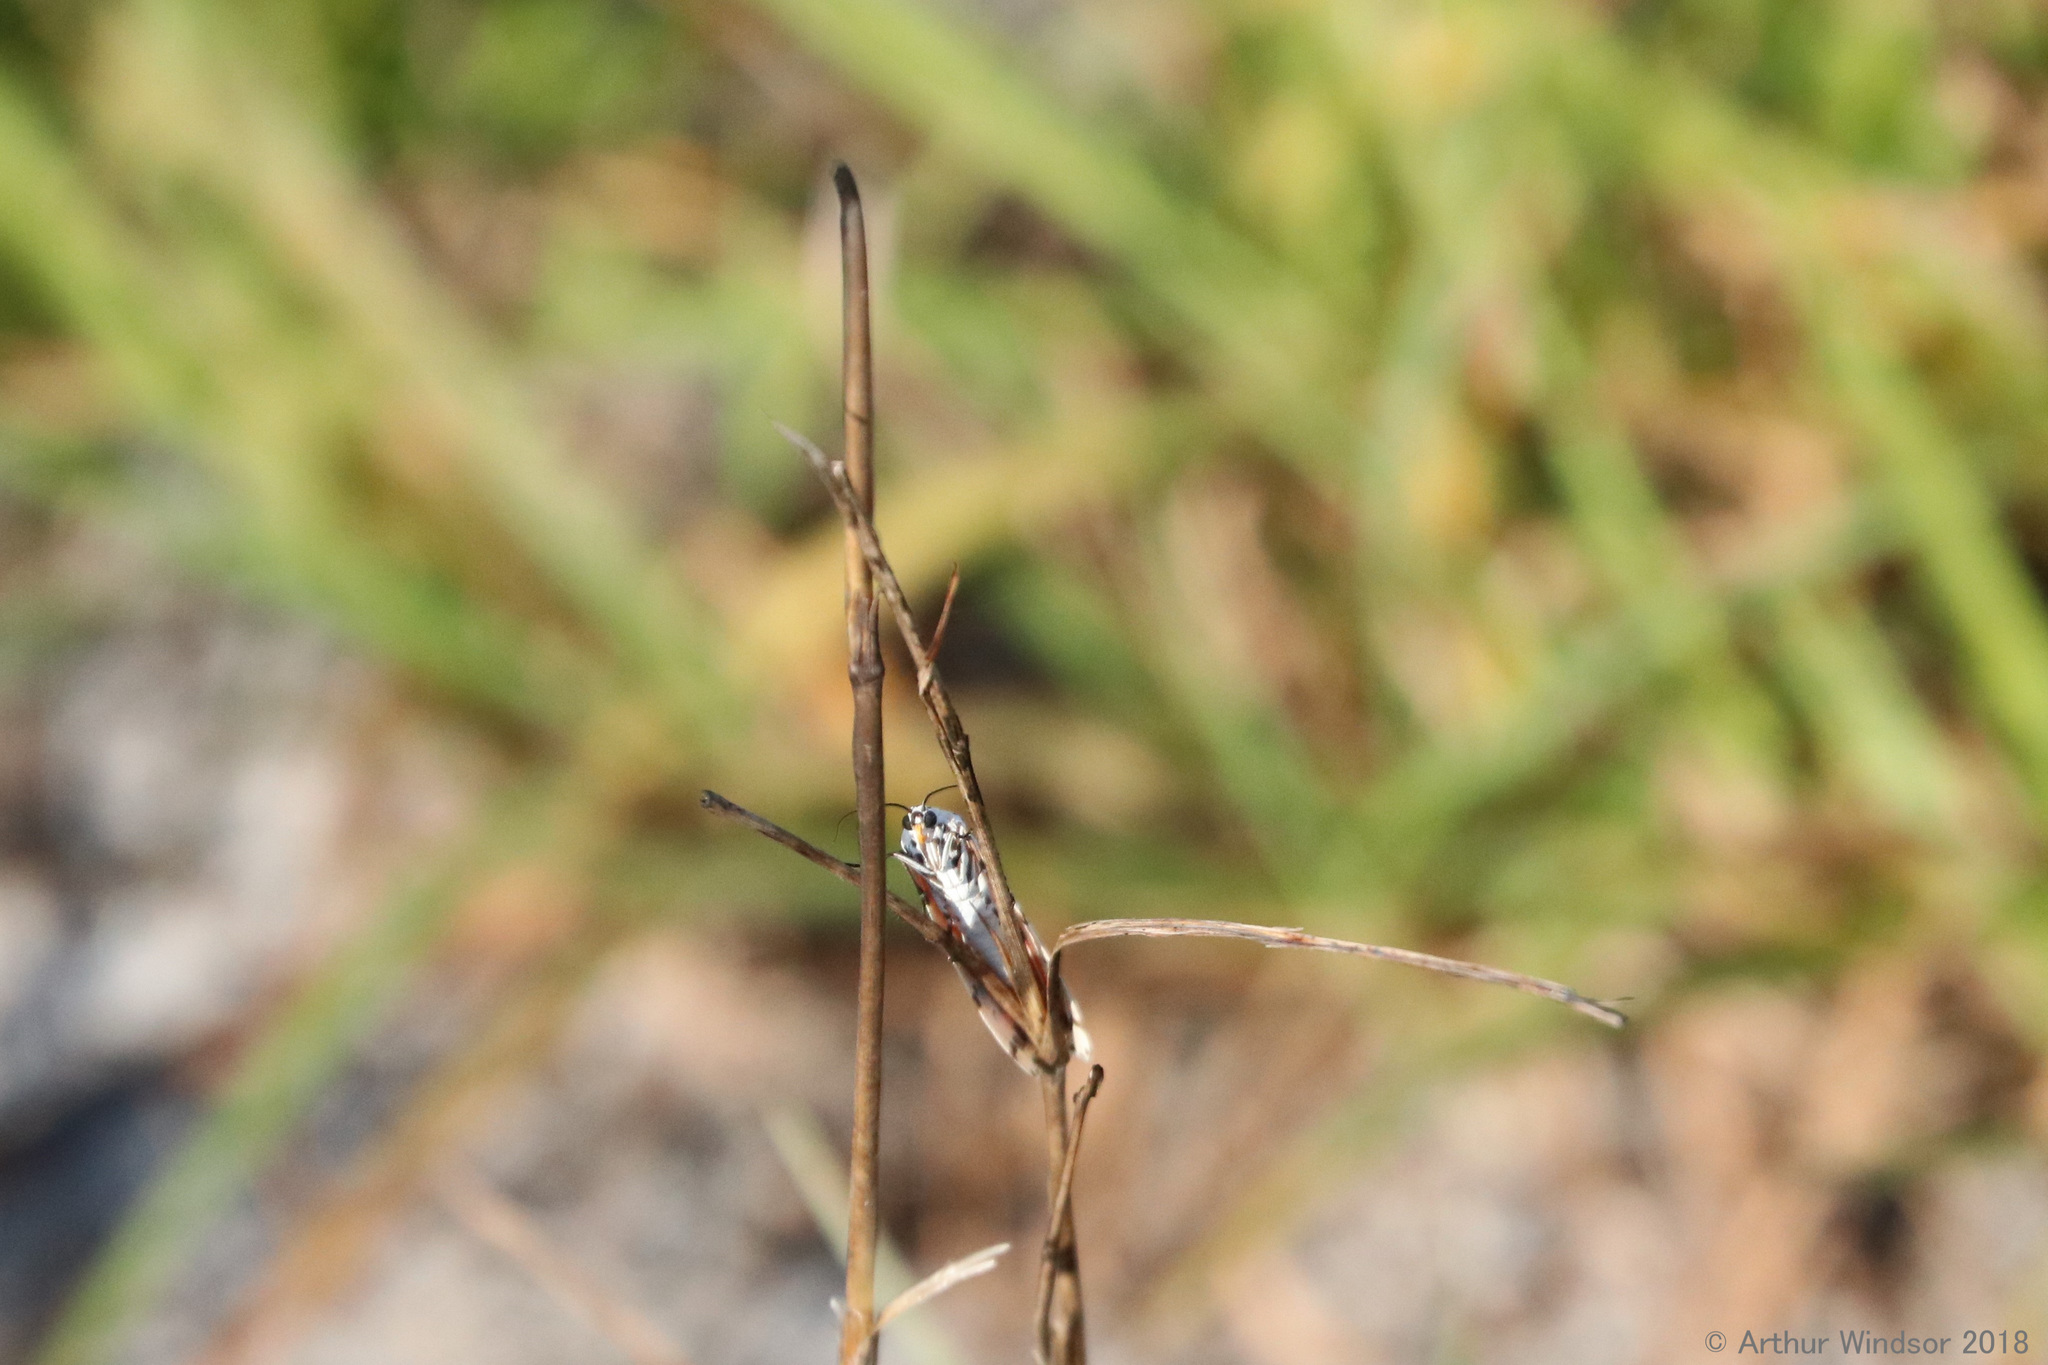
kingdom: Animalia
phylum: Arthropoda
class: Insecta
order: Lepidoptera
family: Erebidae
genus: Utetheisa
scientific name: Utetheisa ornatrix
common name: Beautiful utetheisa
